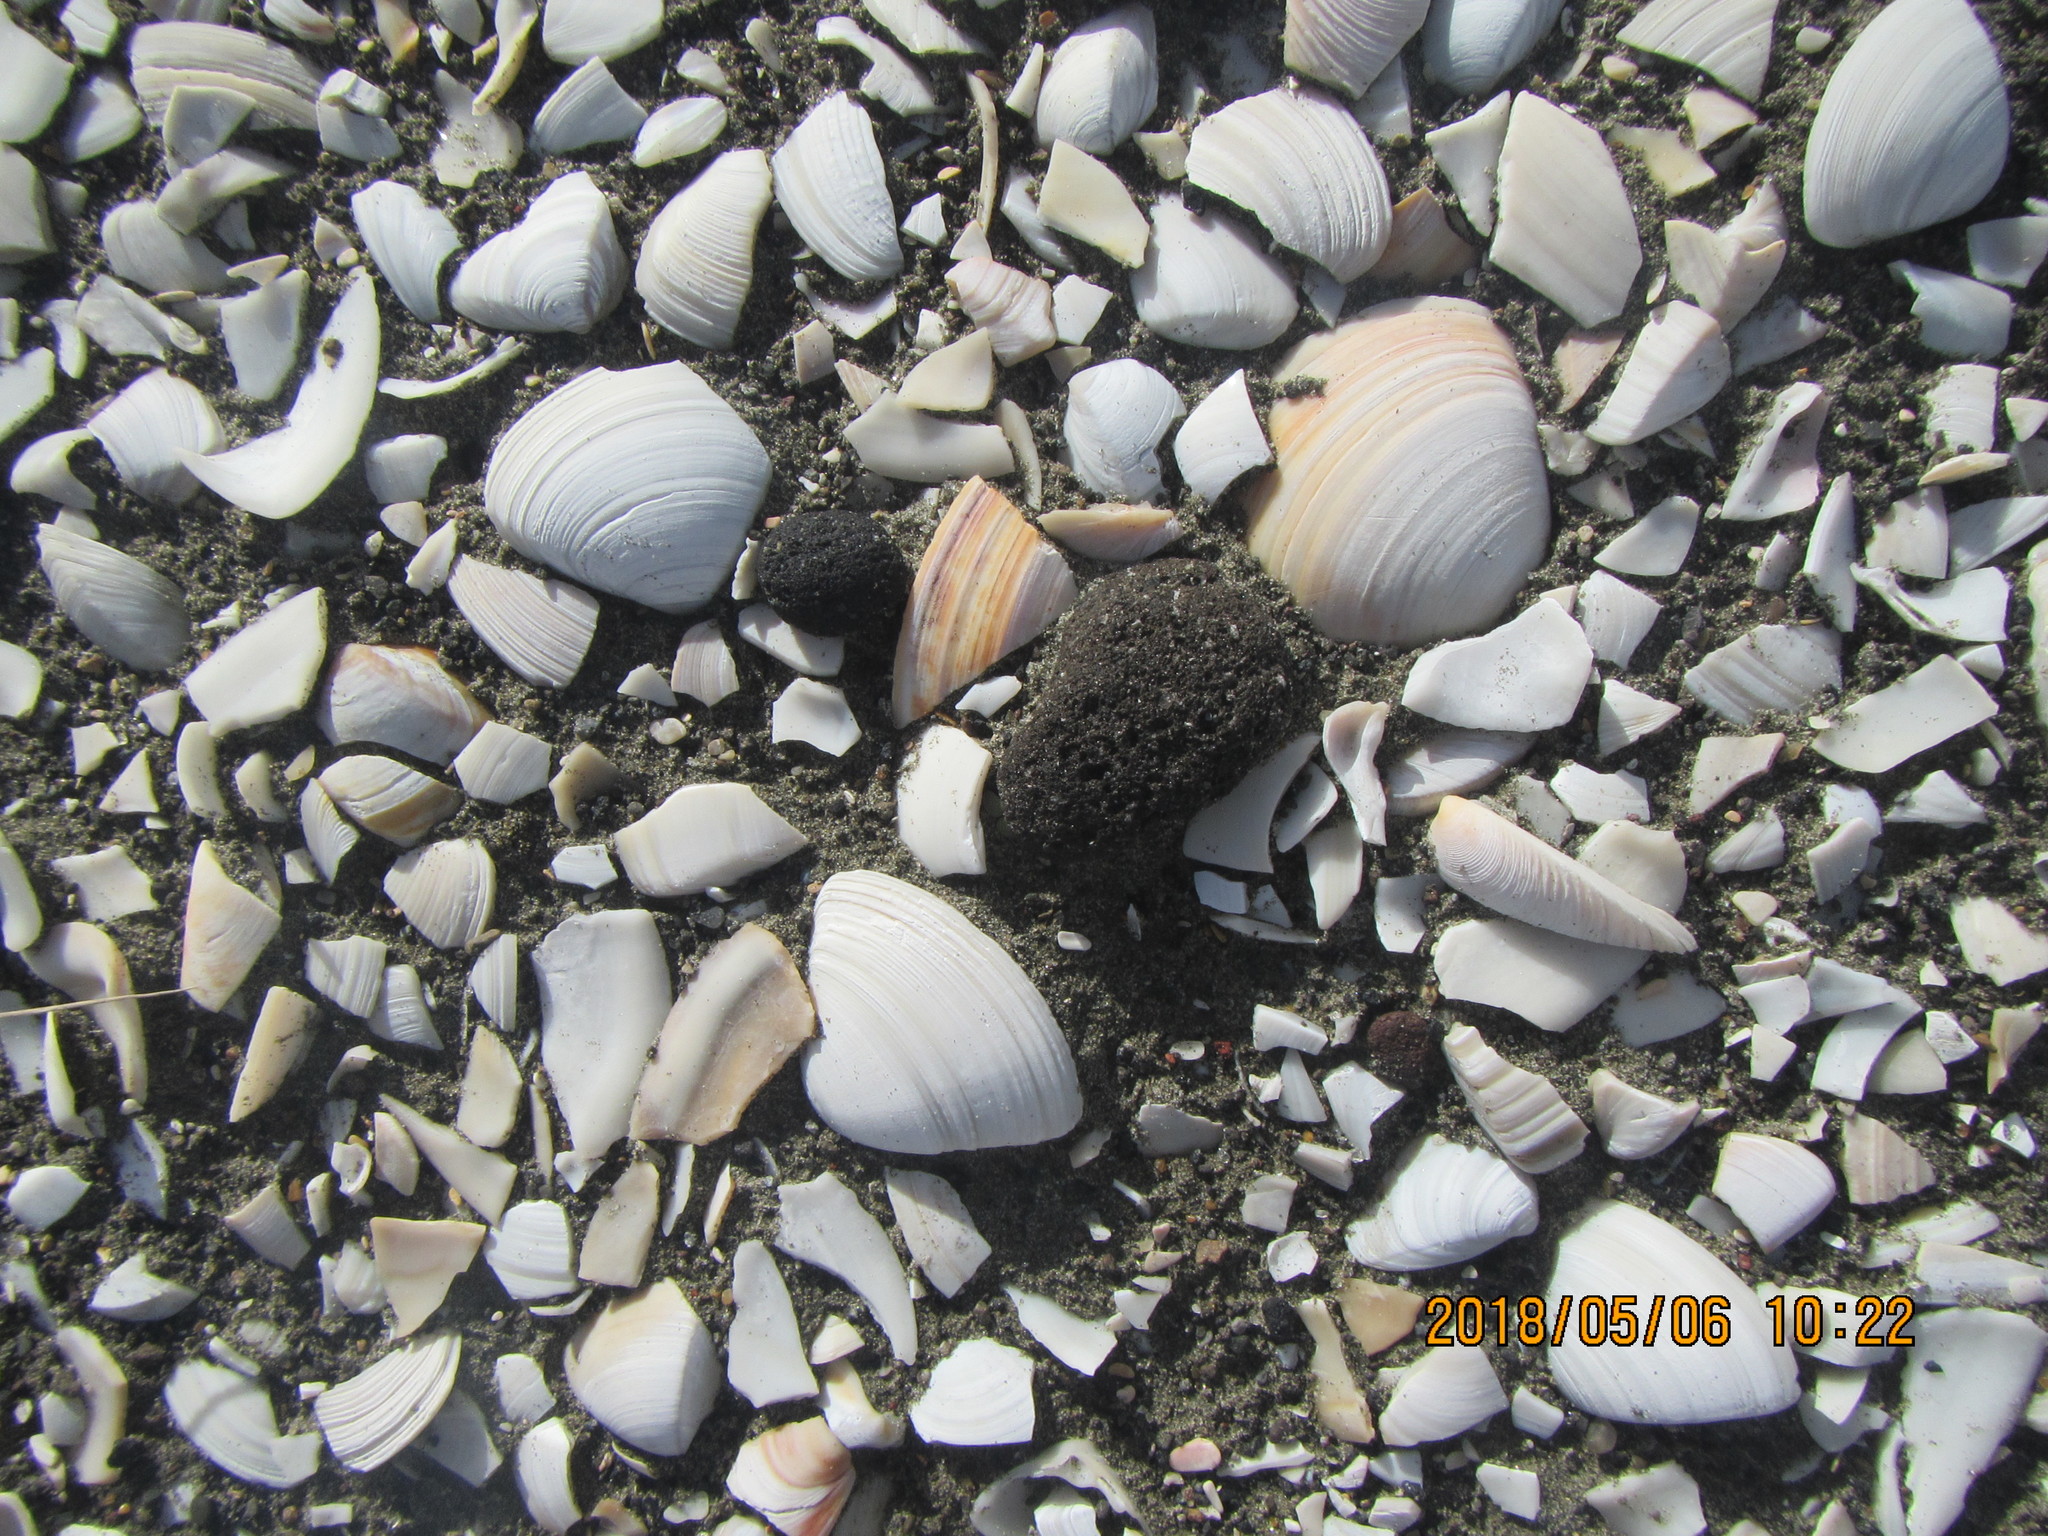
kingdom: Animalia
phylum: Mollusca
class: Bivalvia
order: Venerida
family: Mactridae
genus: Spisula
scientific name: Spisula discors
